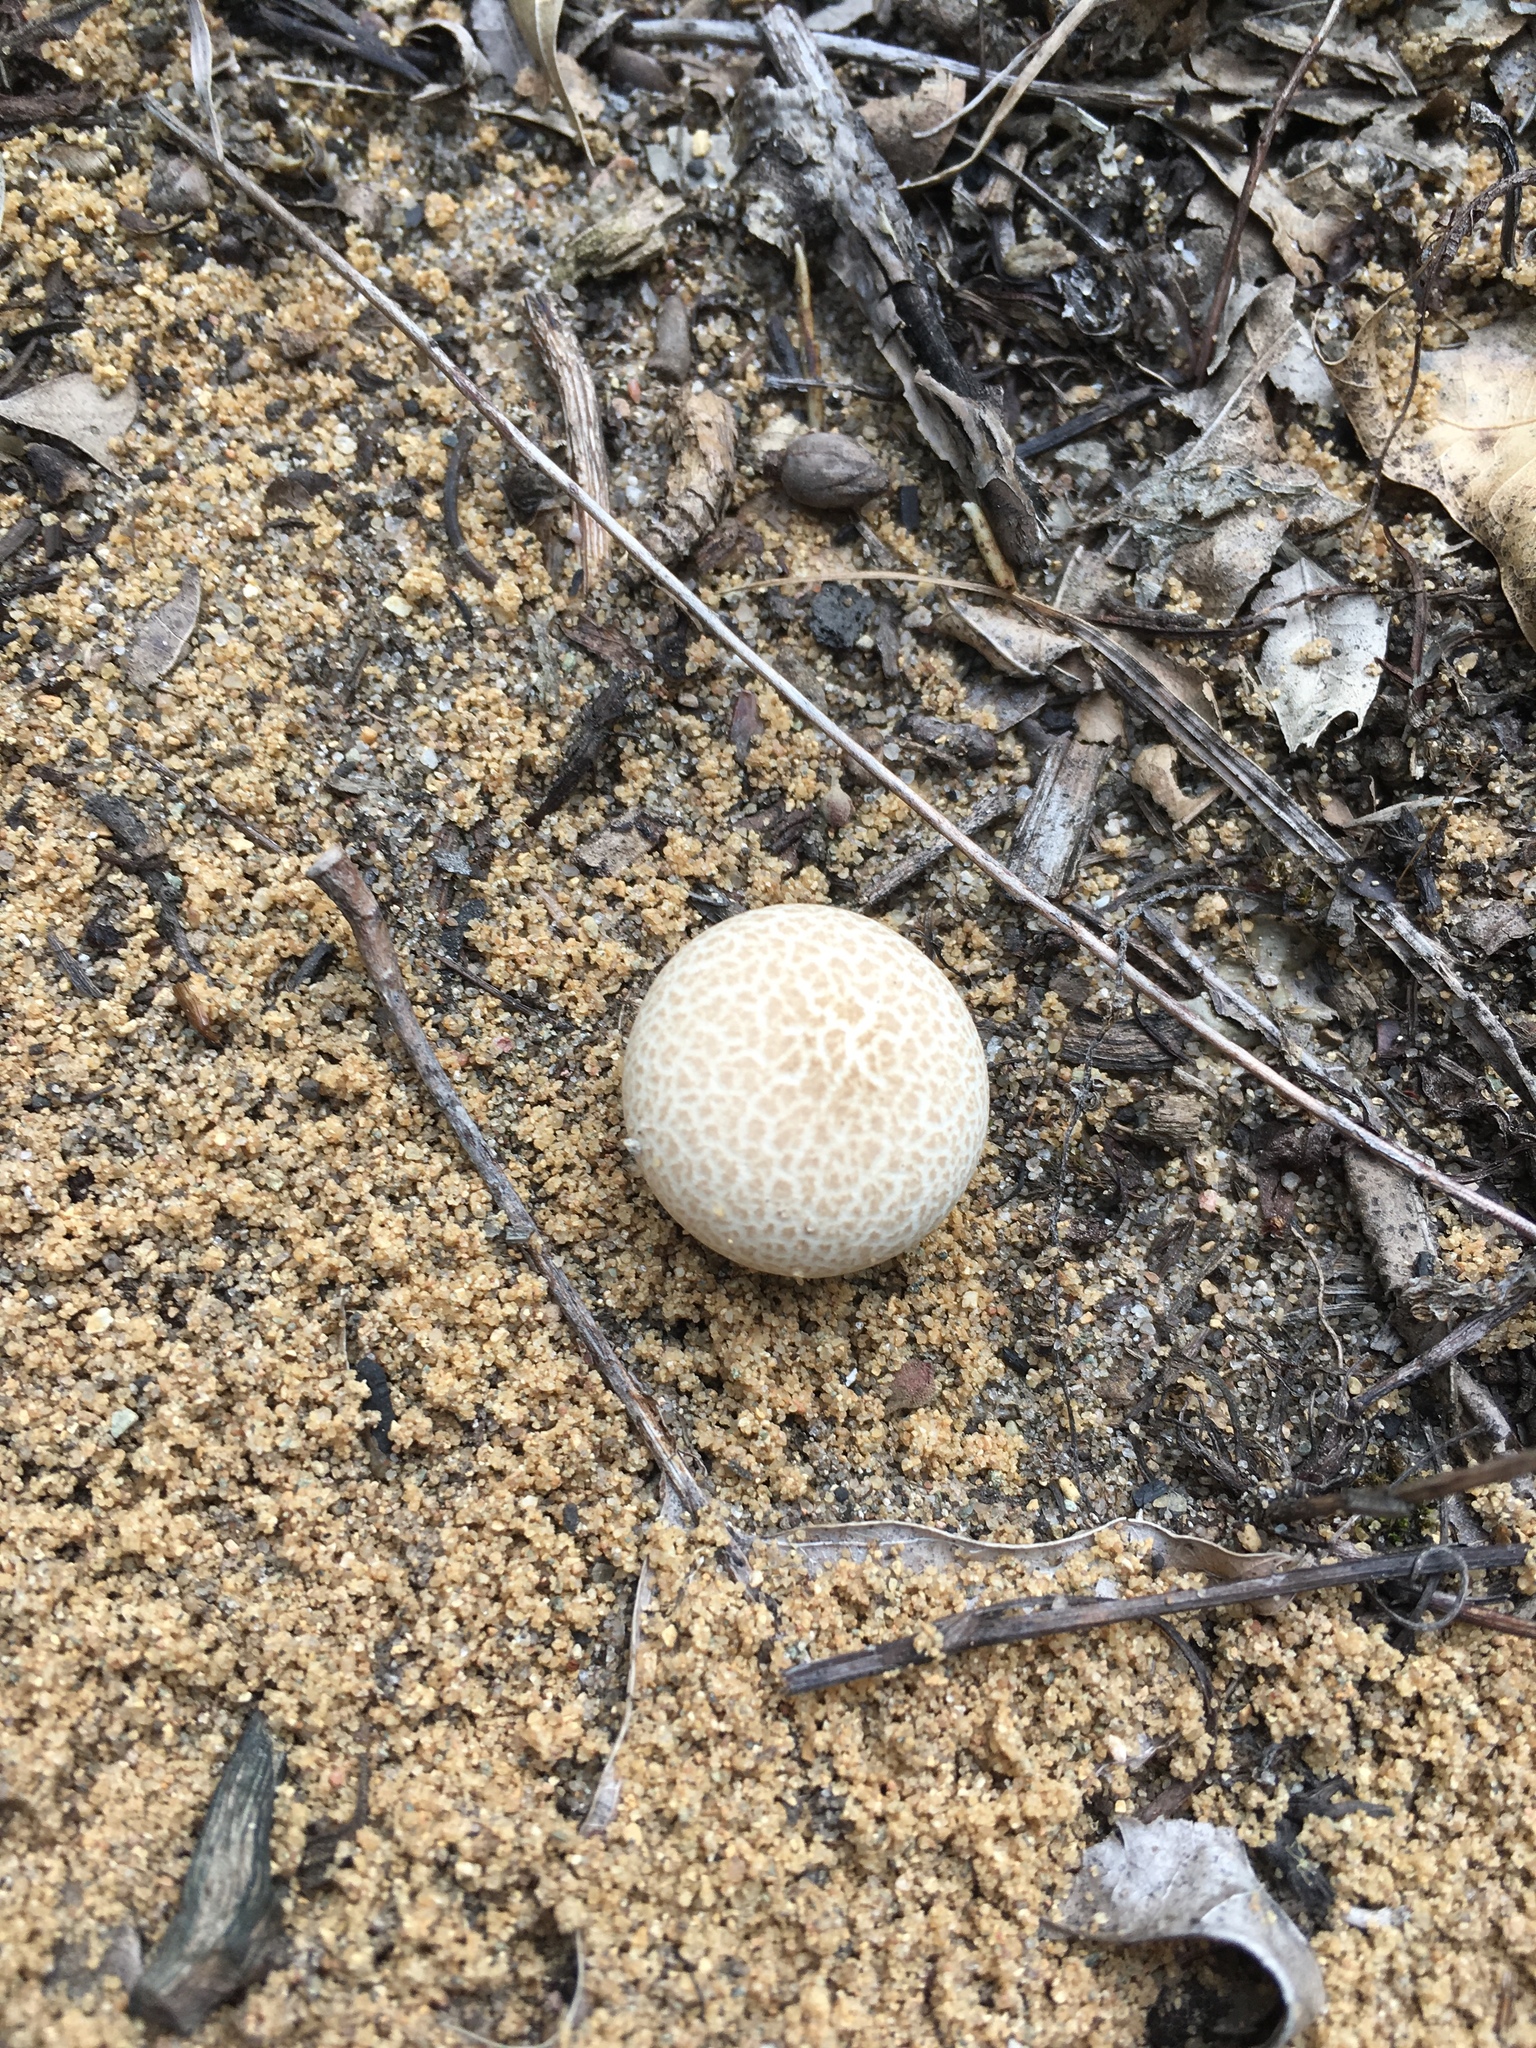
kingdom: Fungi
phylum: Basidiomycota
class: Agaricomycetes
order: Boletales
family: Sclerodermataceae
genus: Scleroderma
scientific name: Scleroderma citrinum
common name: Common earthball
